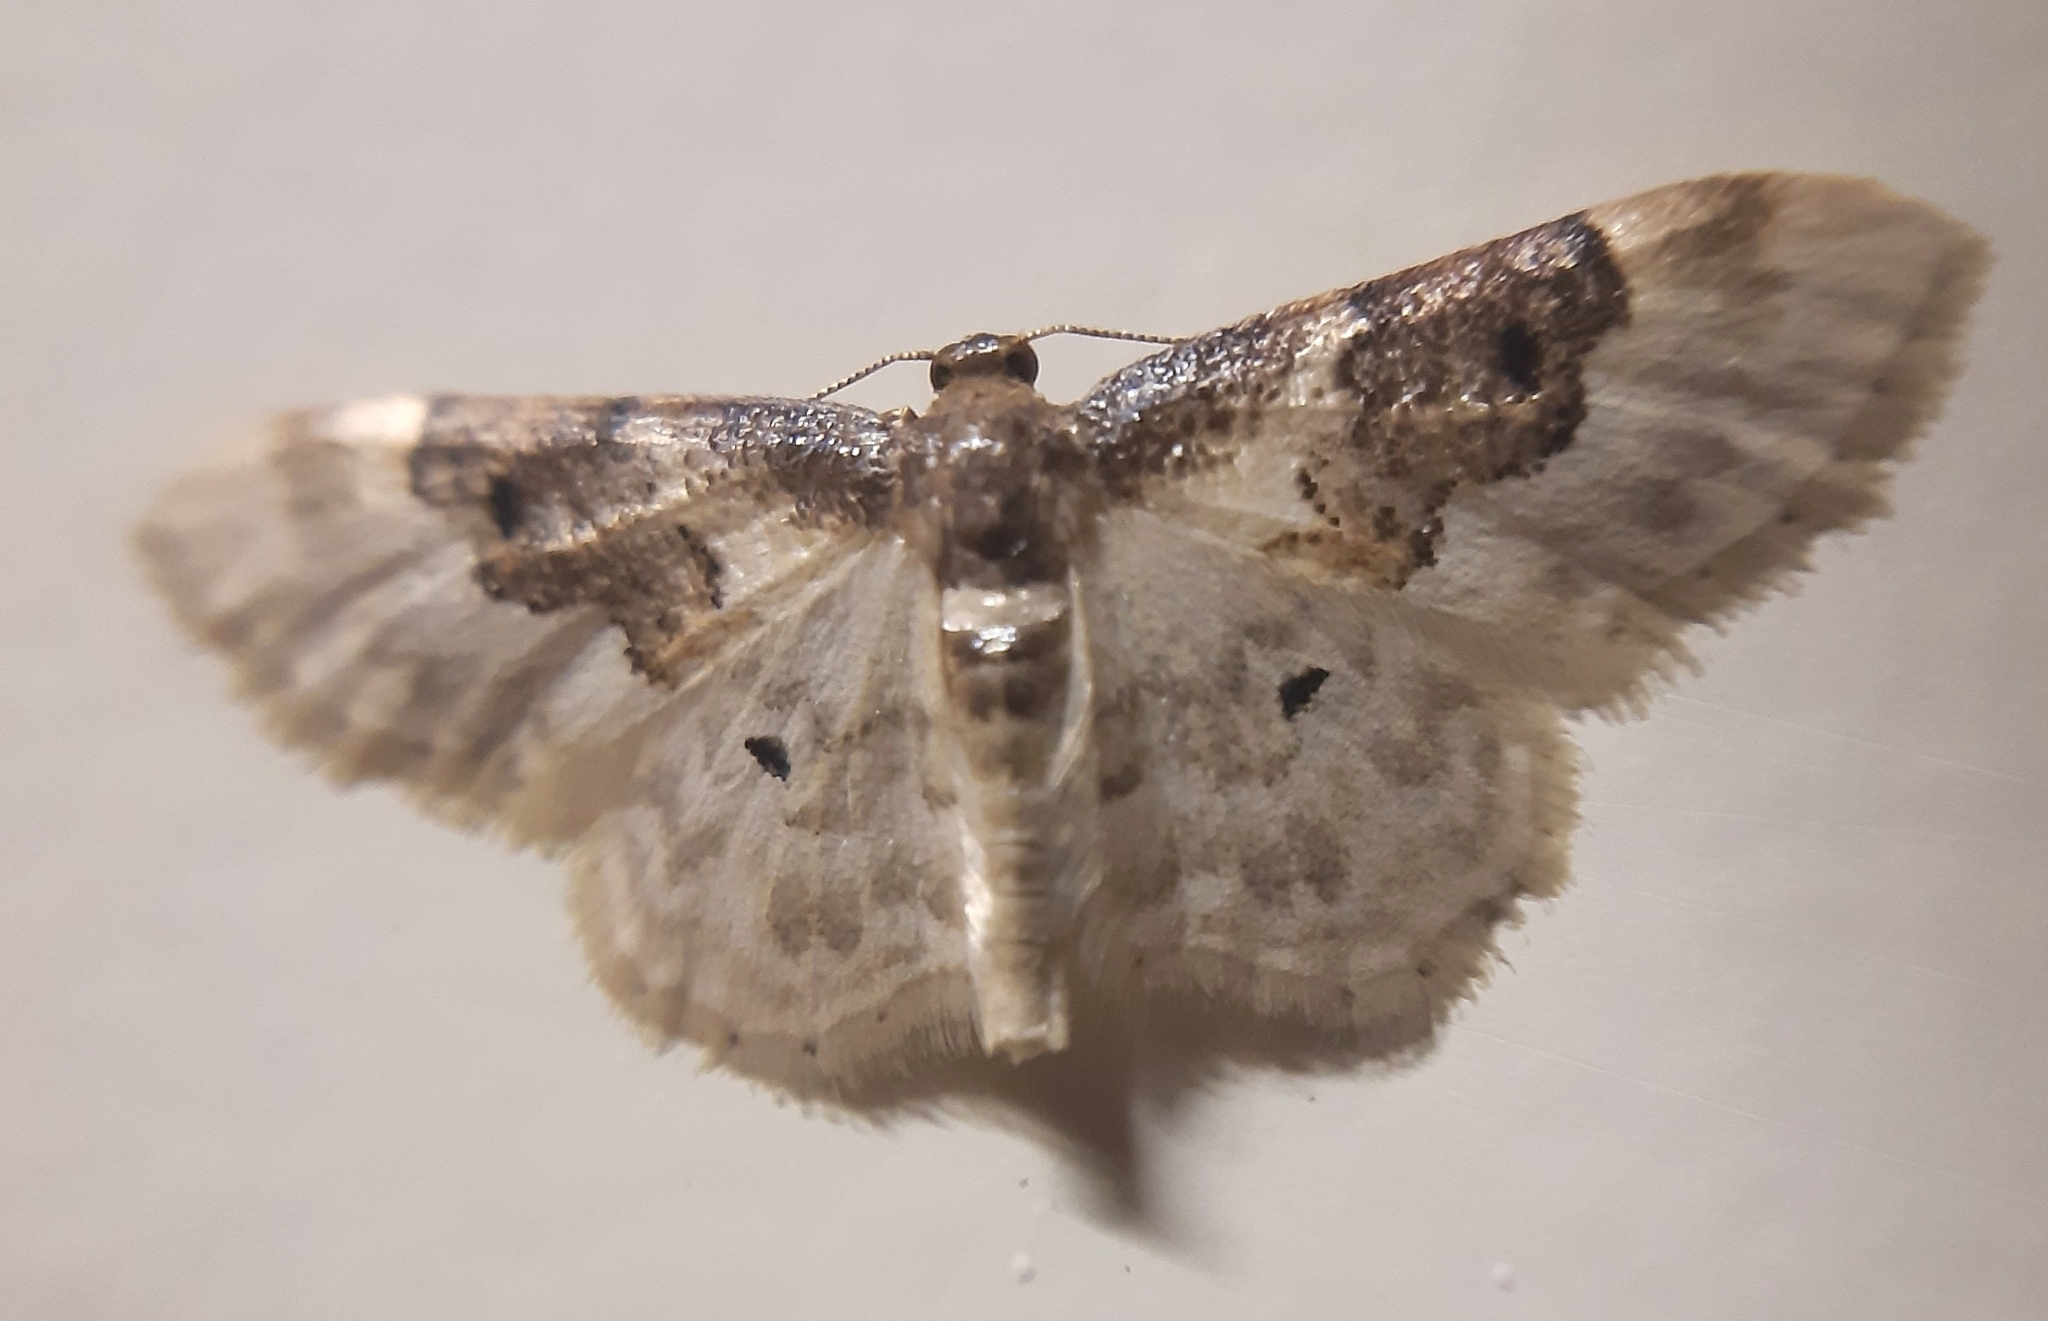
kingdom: Animalia
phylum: Arthropoda
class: Insecta
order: Lepidoptera
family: Geometridae
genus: Idaea
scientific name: Idaea rusticata
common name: Least carpet
